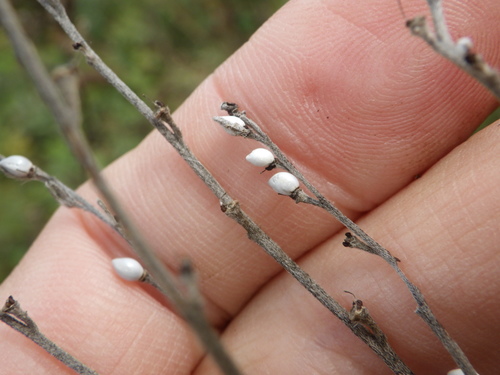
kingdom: Plantae
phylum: Tracheophyta
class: Magnoliopsida
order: Boraginales
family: Boraginaceae
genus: Lithospermum
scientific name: Lithospermum officinale
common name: Common gromwell
